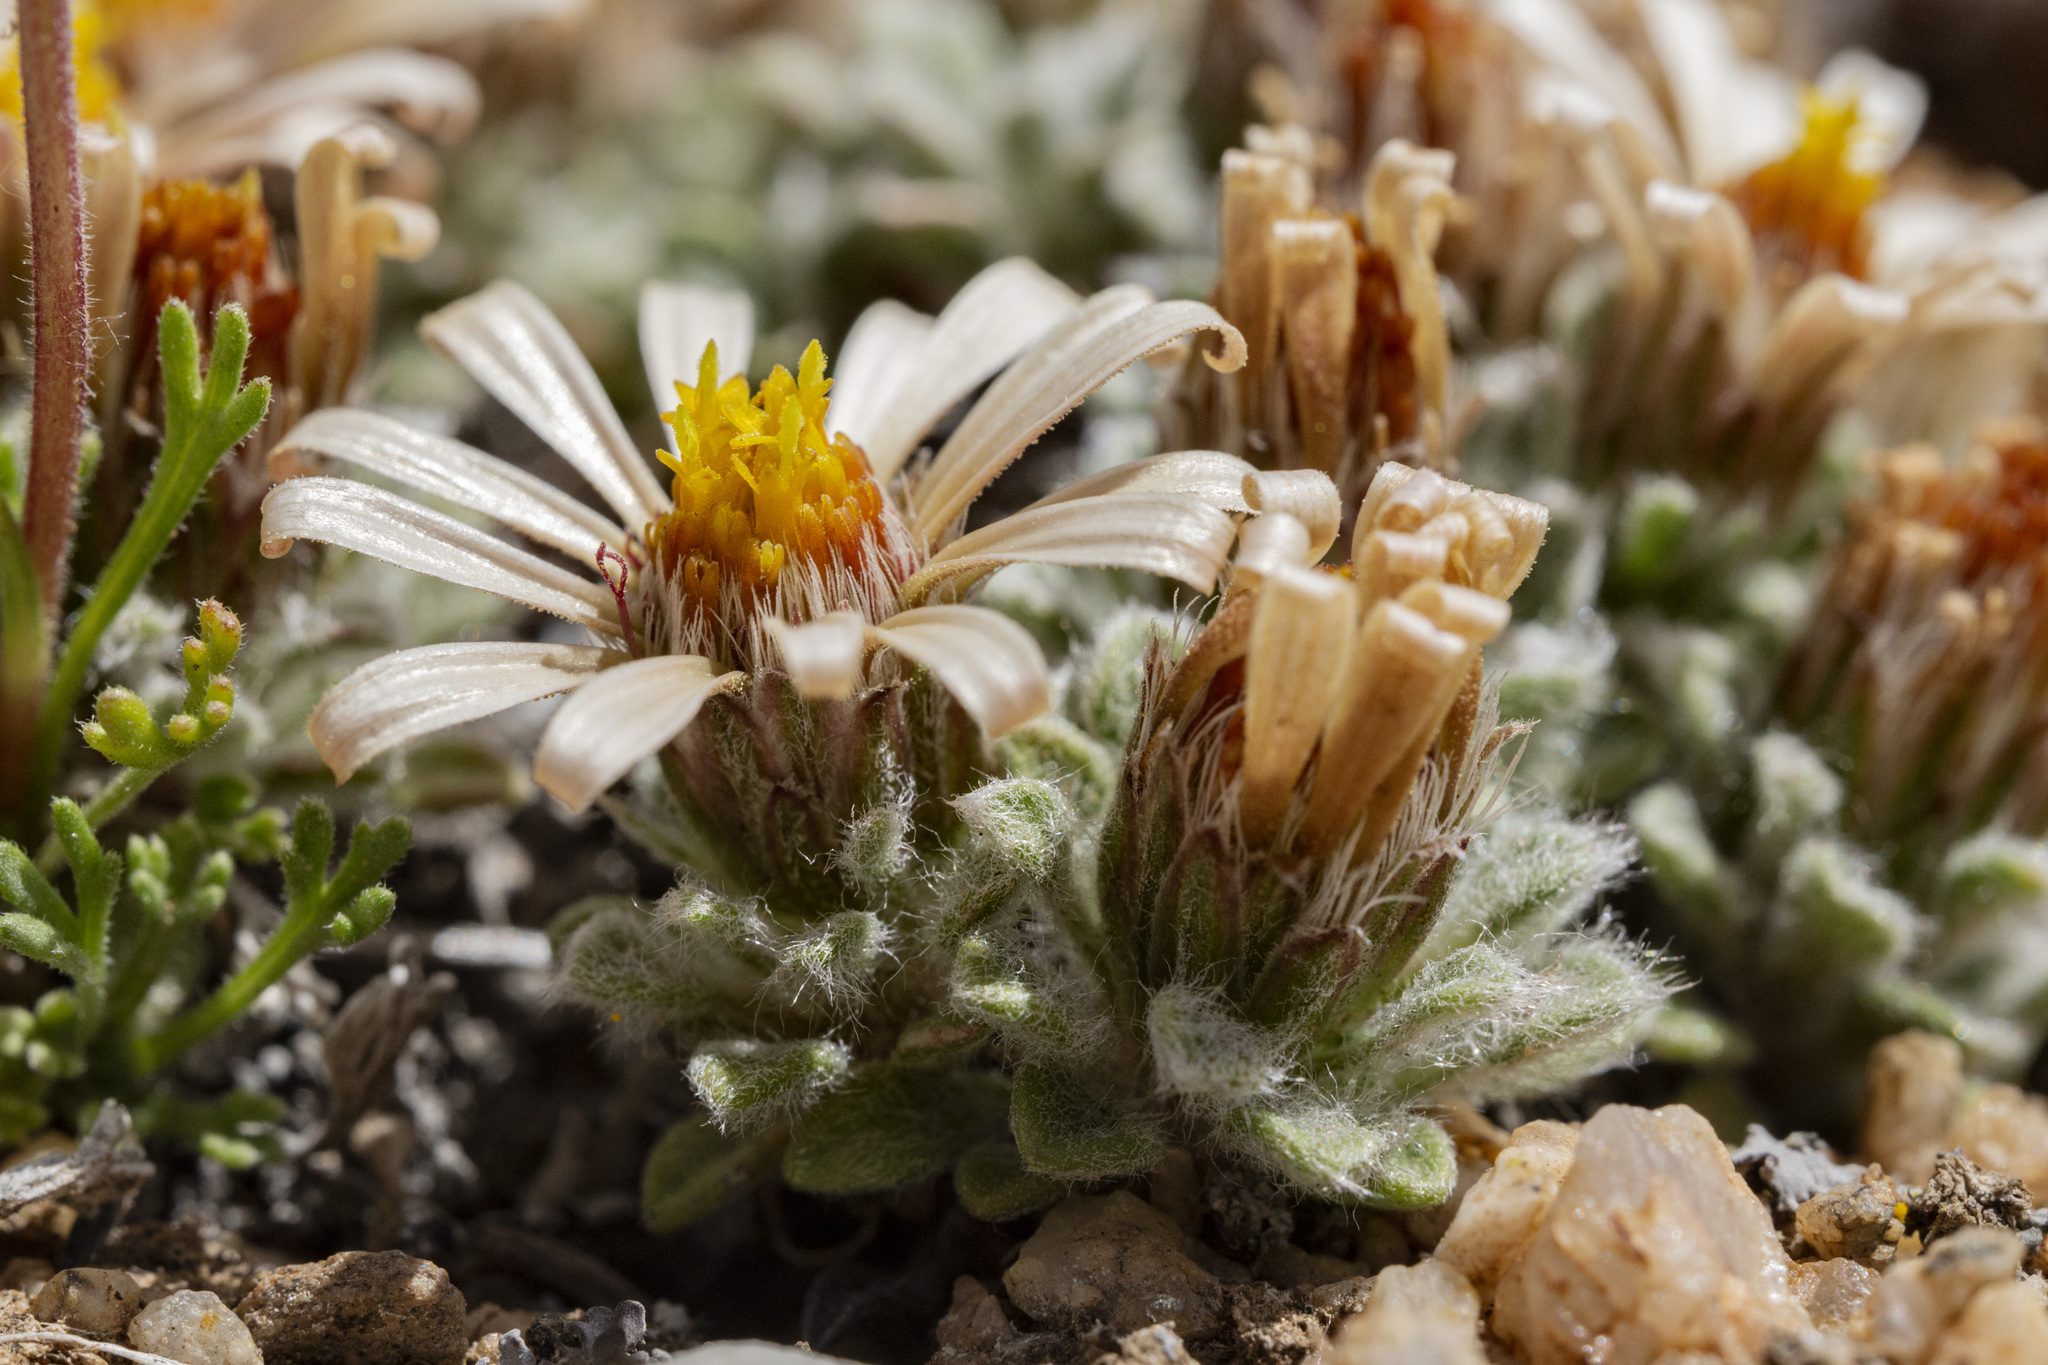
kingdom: Plantae
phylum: Tracheophyta
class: Magnoliopsida
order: Asterales
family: Asteraceae
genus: Townsendia
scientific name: Townsendia spathulata
